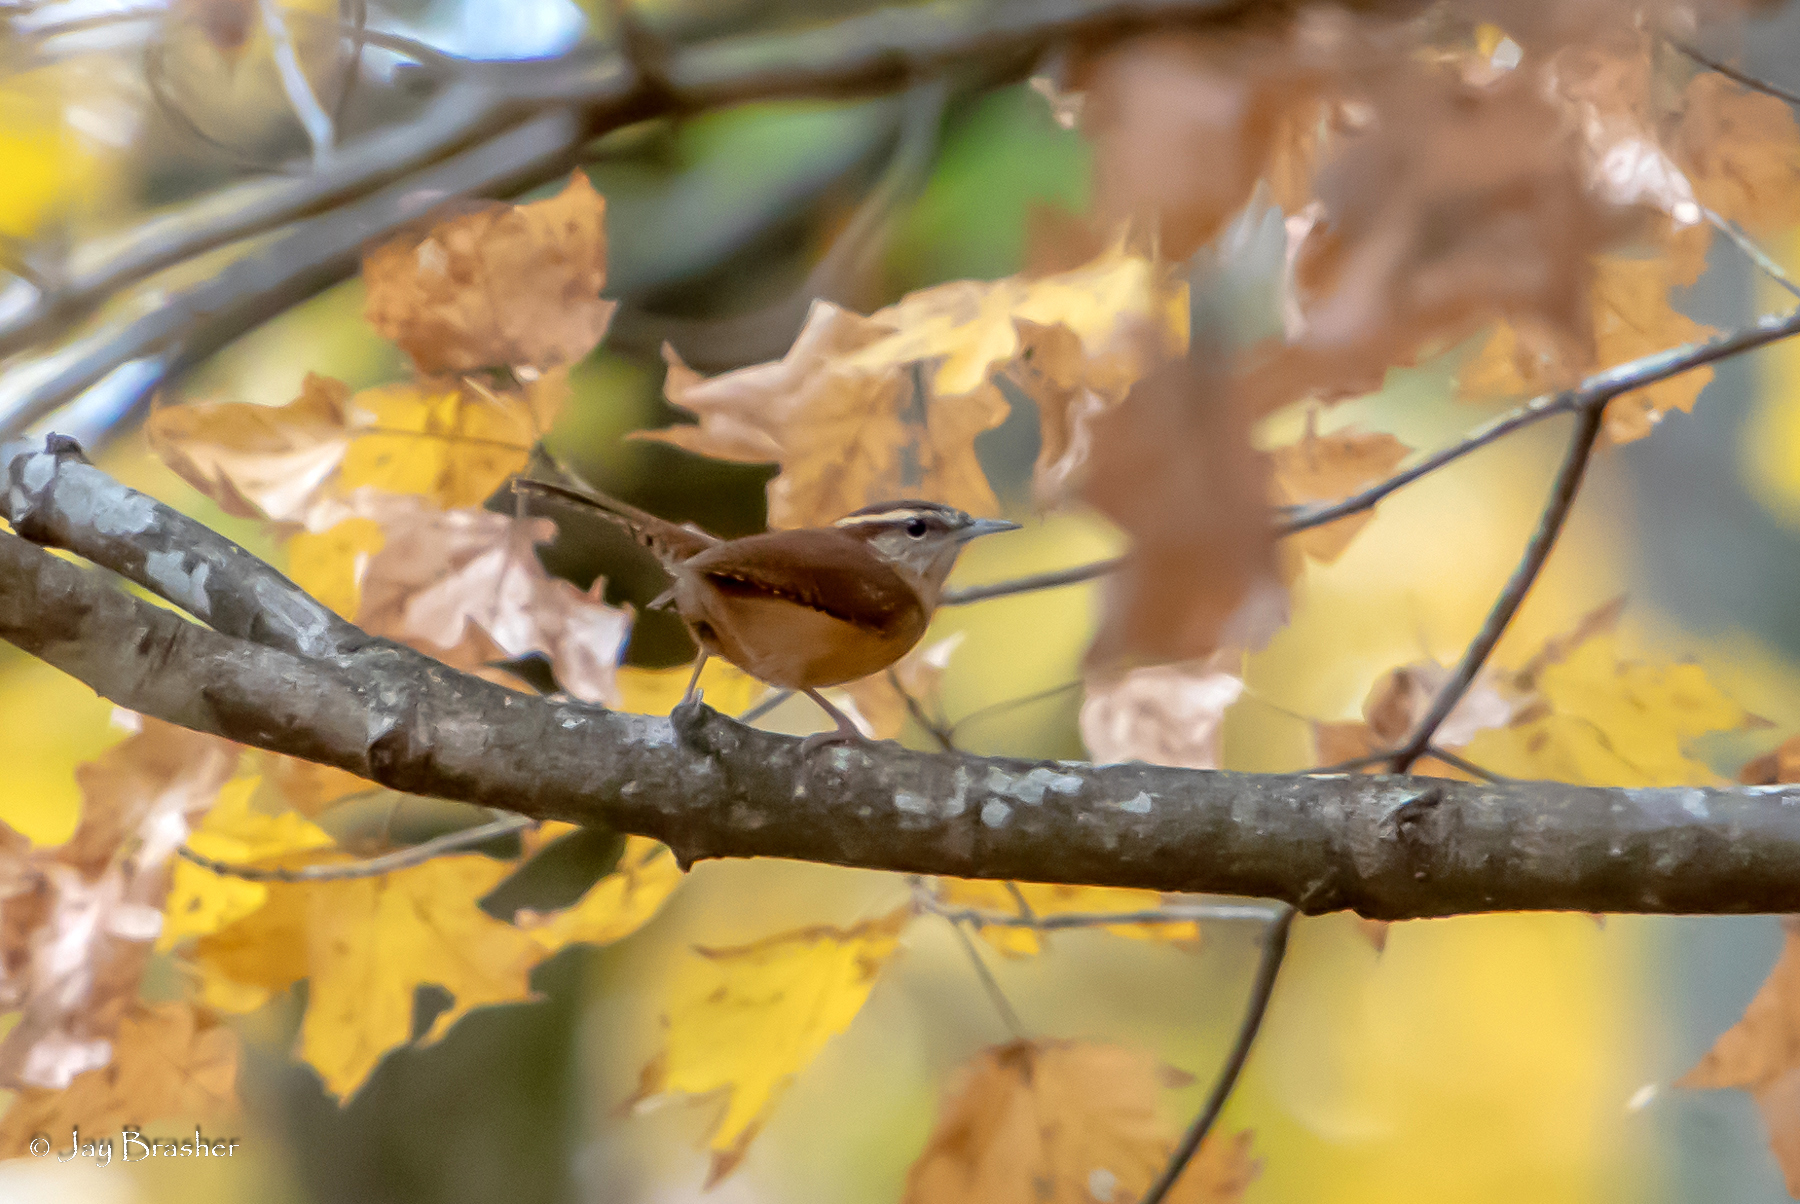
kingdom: Animalia
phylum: Chordata
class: Aves
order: Passeriformes
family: Troglodytidae
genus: Thryothorus
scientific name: Thryothorus ludovicianus
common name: Carolina wren
